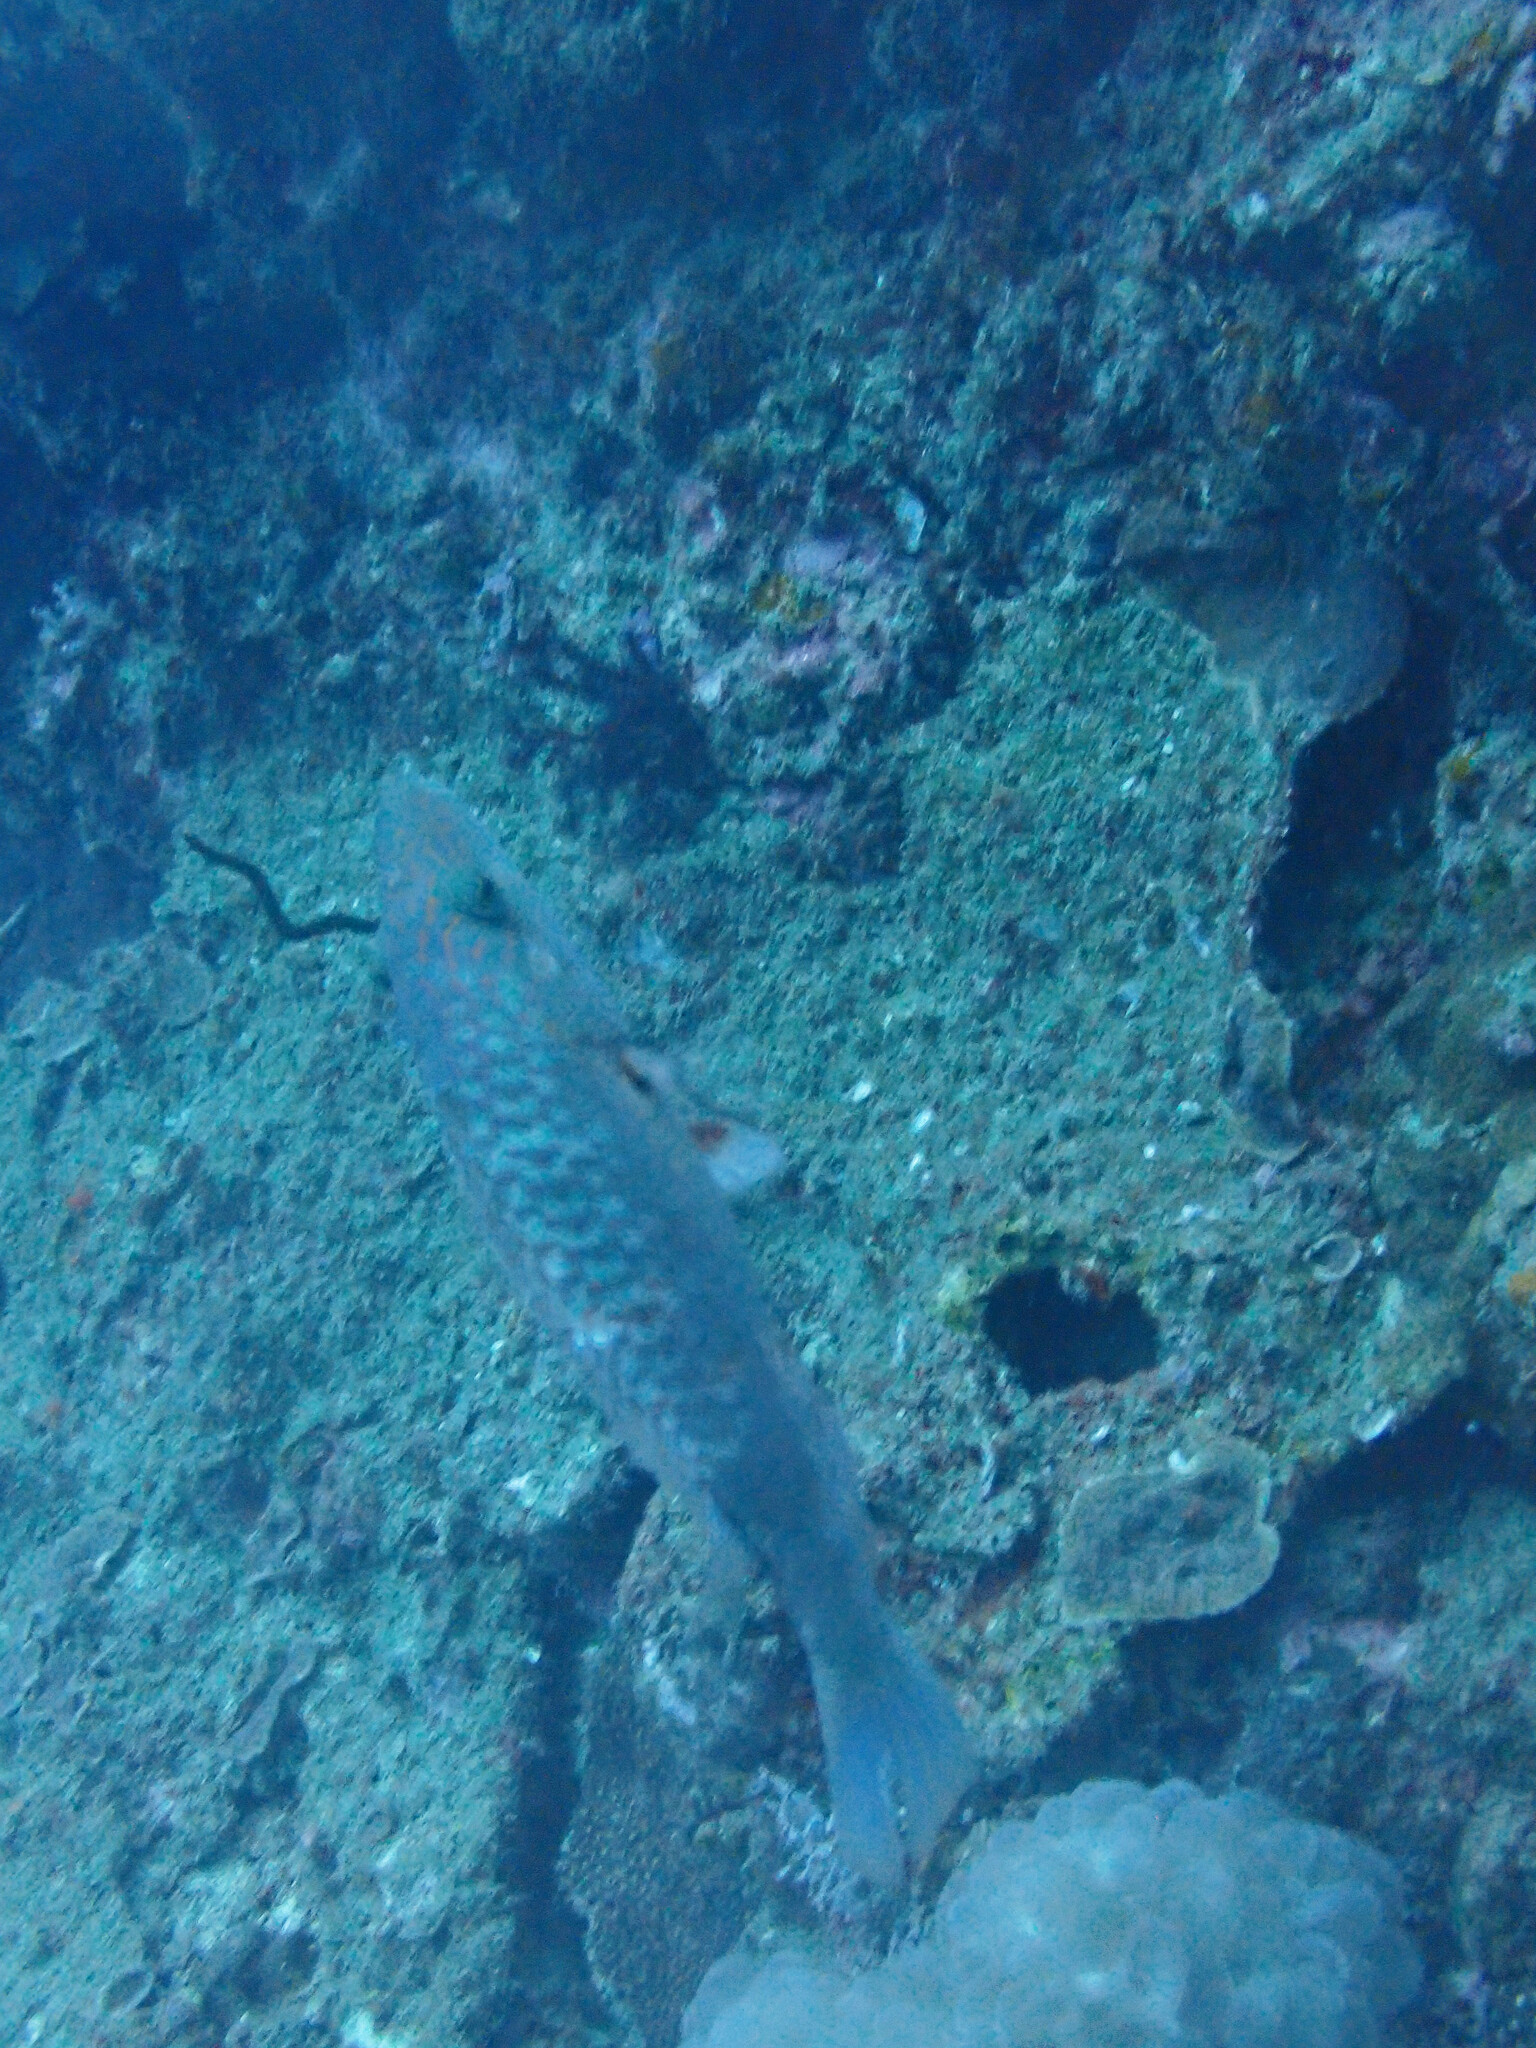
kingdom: Animalia
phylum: Chordata
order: Perciformes
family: Labridae
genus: Oxycheilinus
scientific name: Oxycheilinus digramma
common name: Bandcheek wrasse
